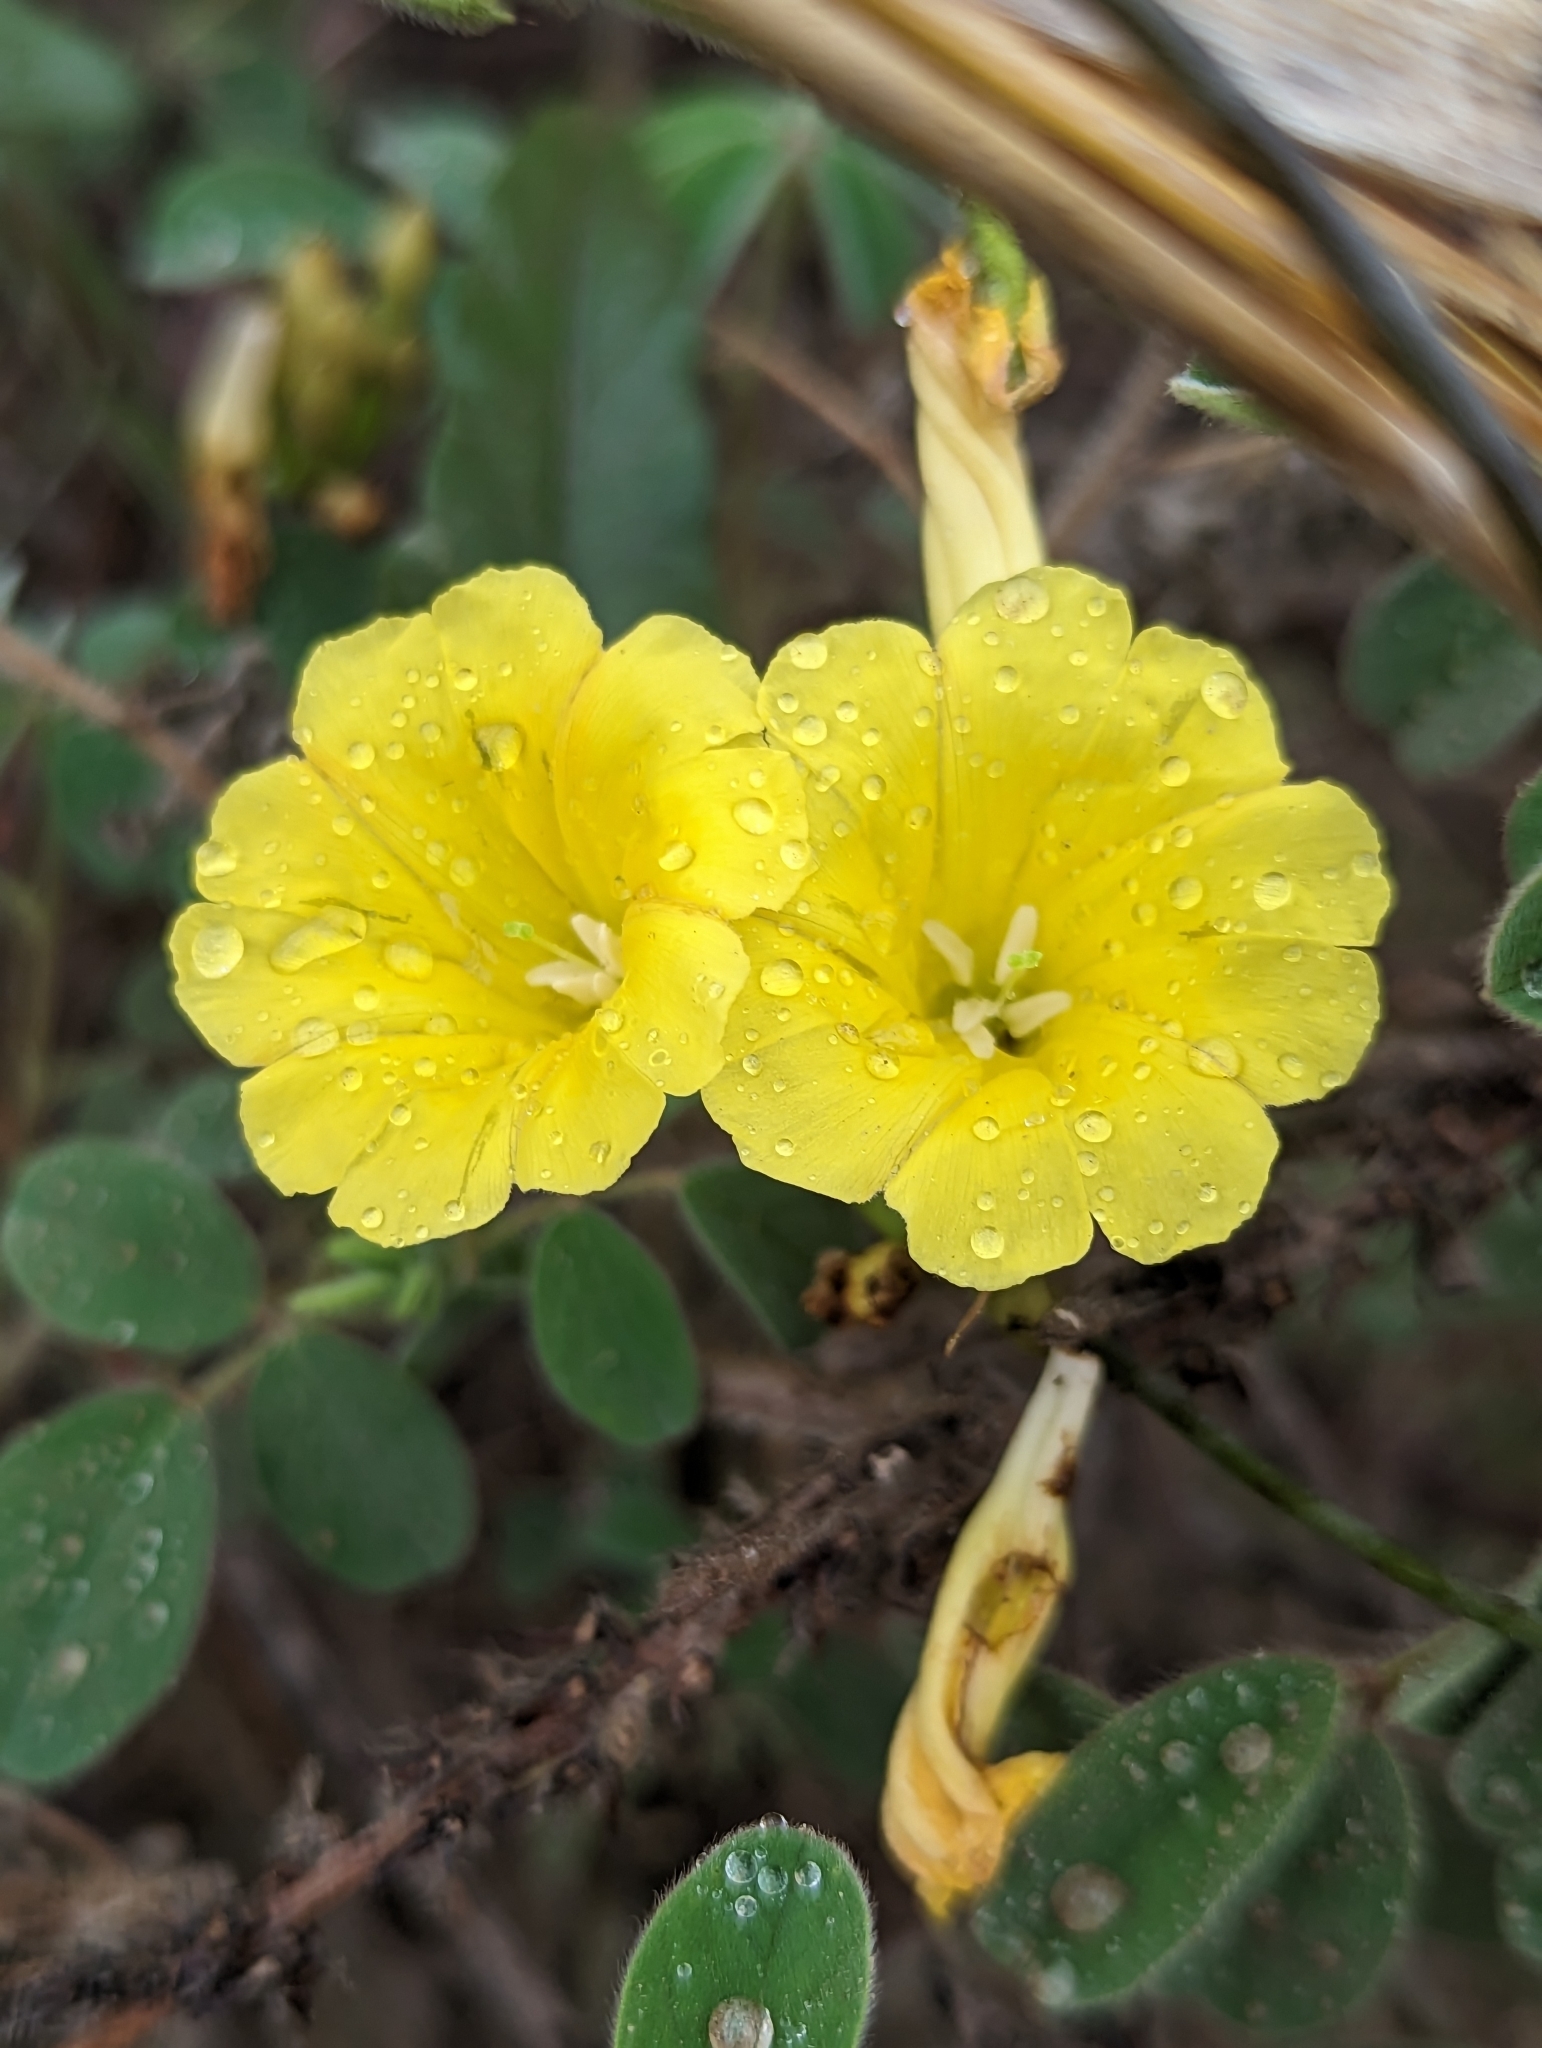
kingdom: Plantae
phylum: Tracheophyta
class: Magnoliopsida
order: Solanales
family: Convolvulaceae
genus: Camonea
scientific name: Camonea umbellata
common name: Hogvine
